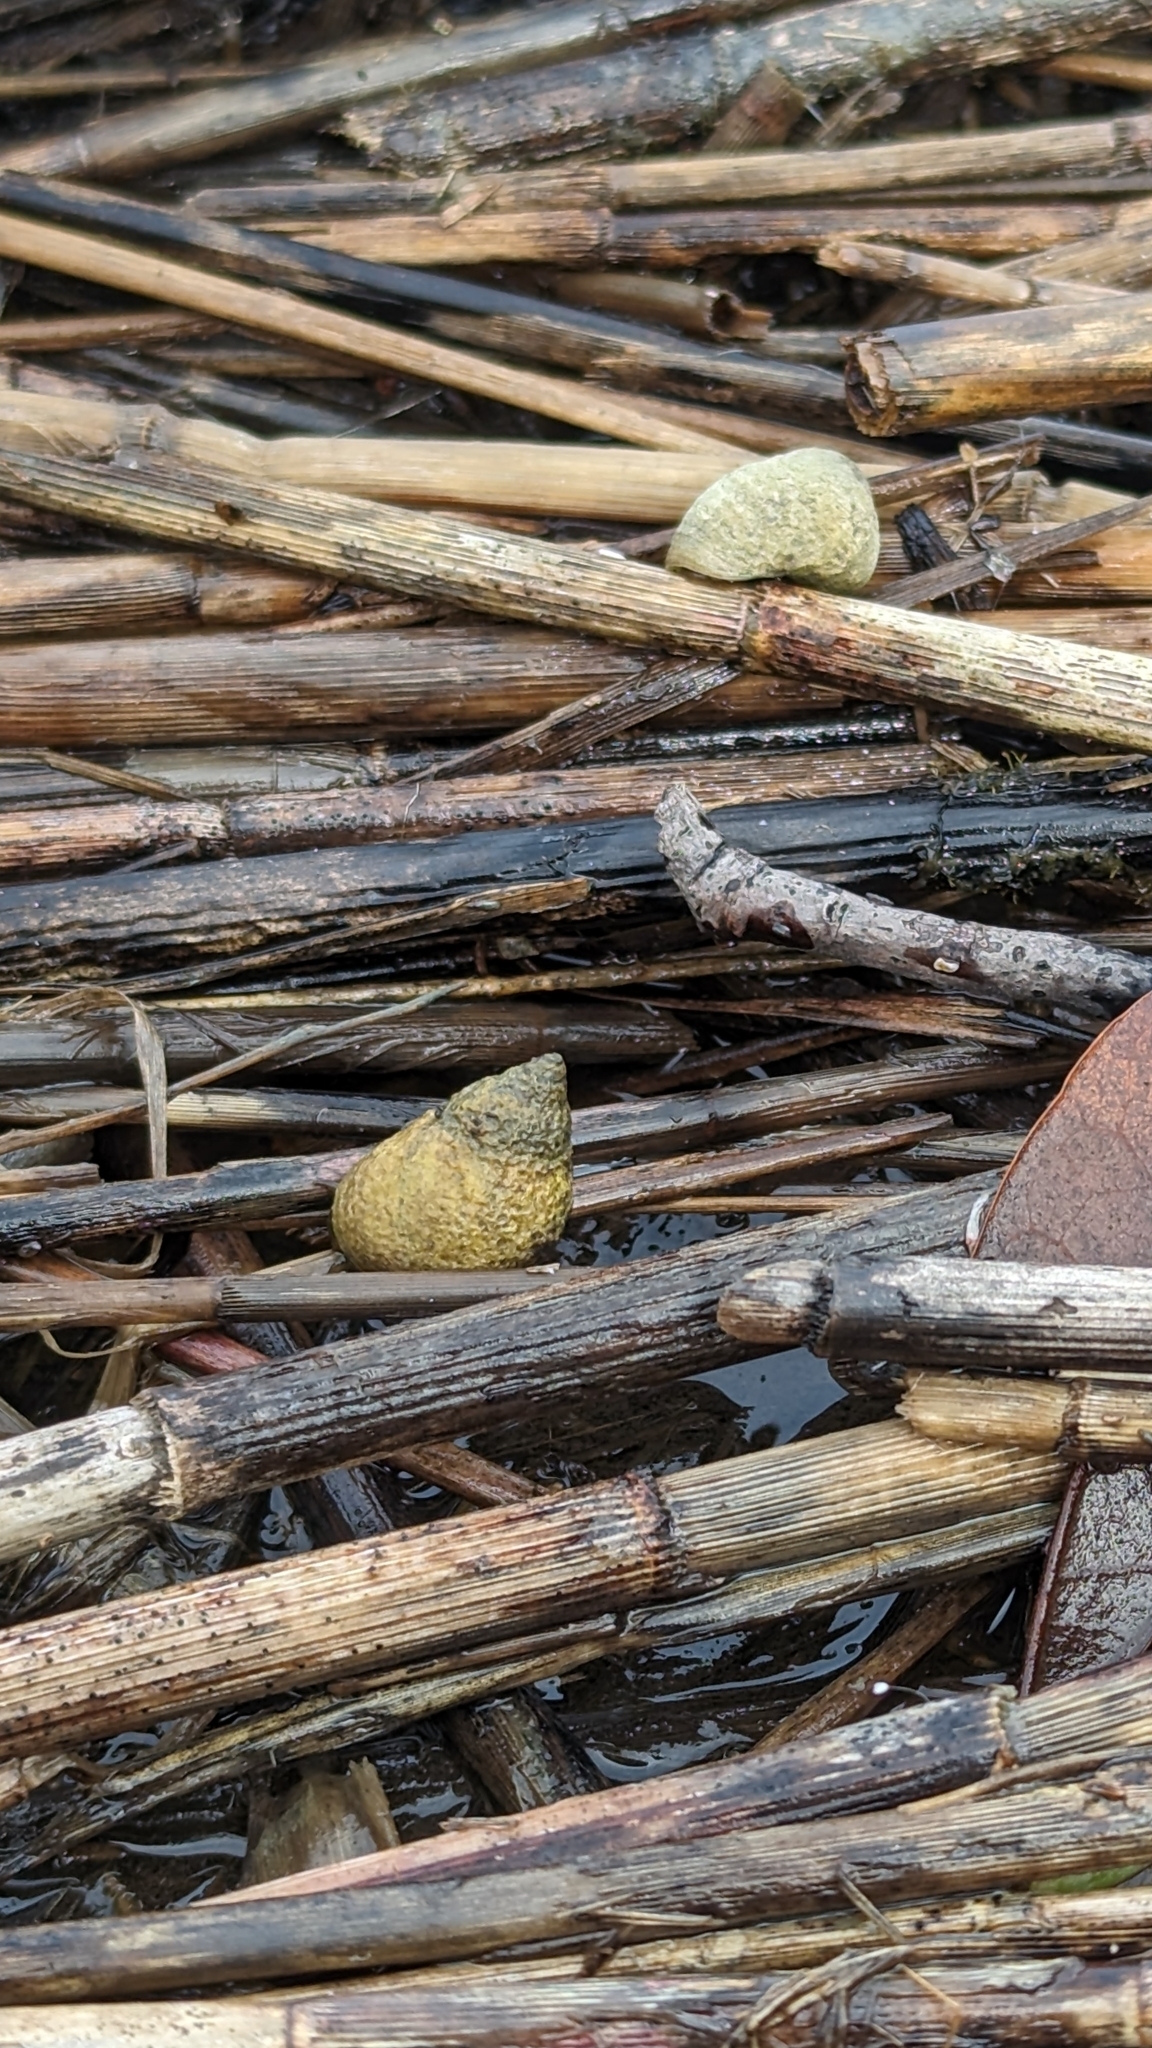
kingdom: Animalia
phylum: Mollusca
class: Gastropoda
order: Littorinimorpha
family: Littorinidae
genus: Littoraria
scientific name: Littoraria irrorata
